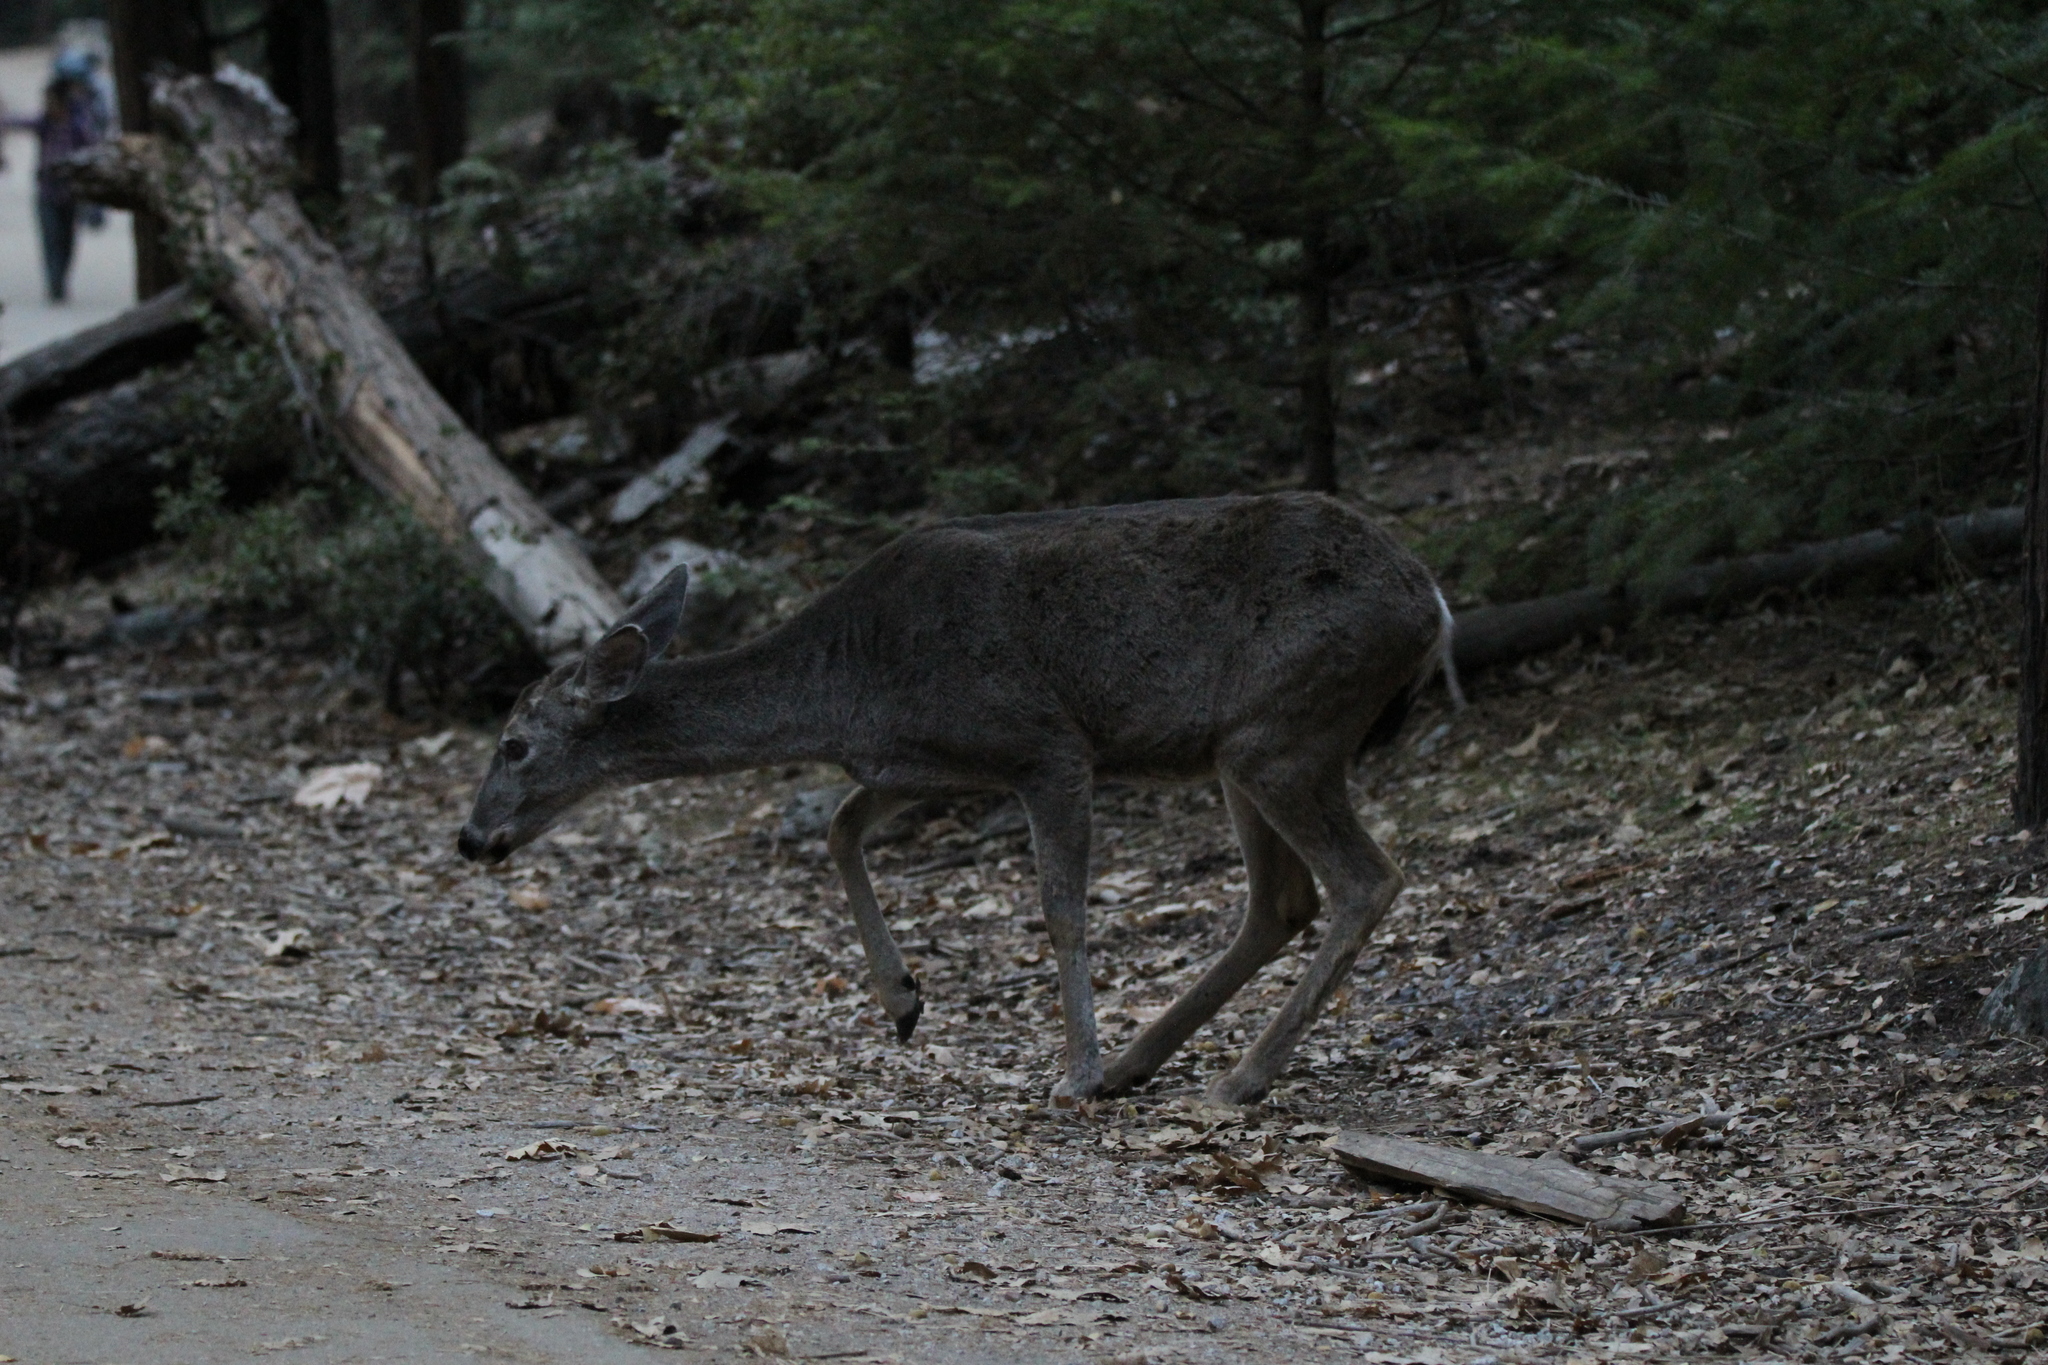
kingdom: Animalia
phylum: Chordata
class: Mammalia
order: Artiodactyla
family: Cervidae
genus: Odocoileus
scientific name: Odocoileus hemionus
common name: Mule deer
